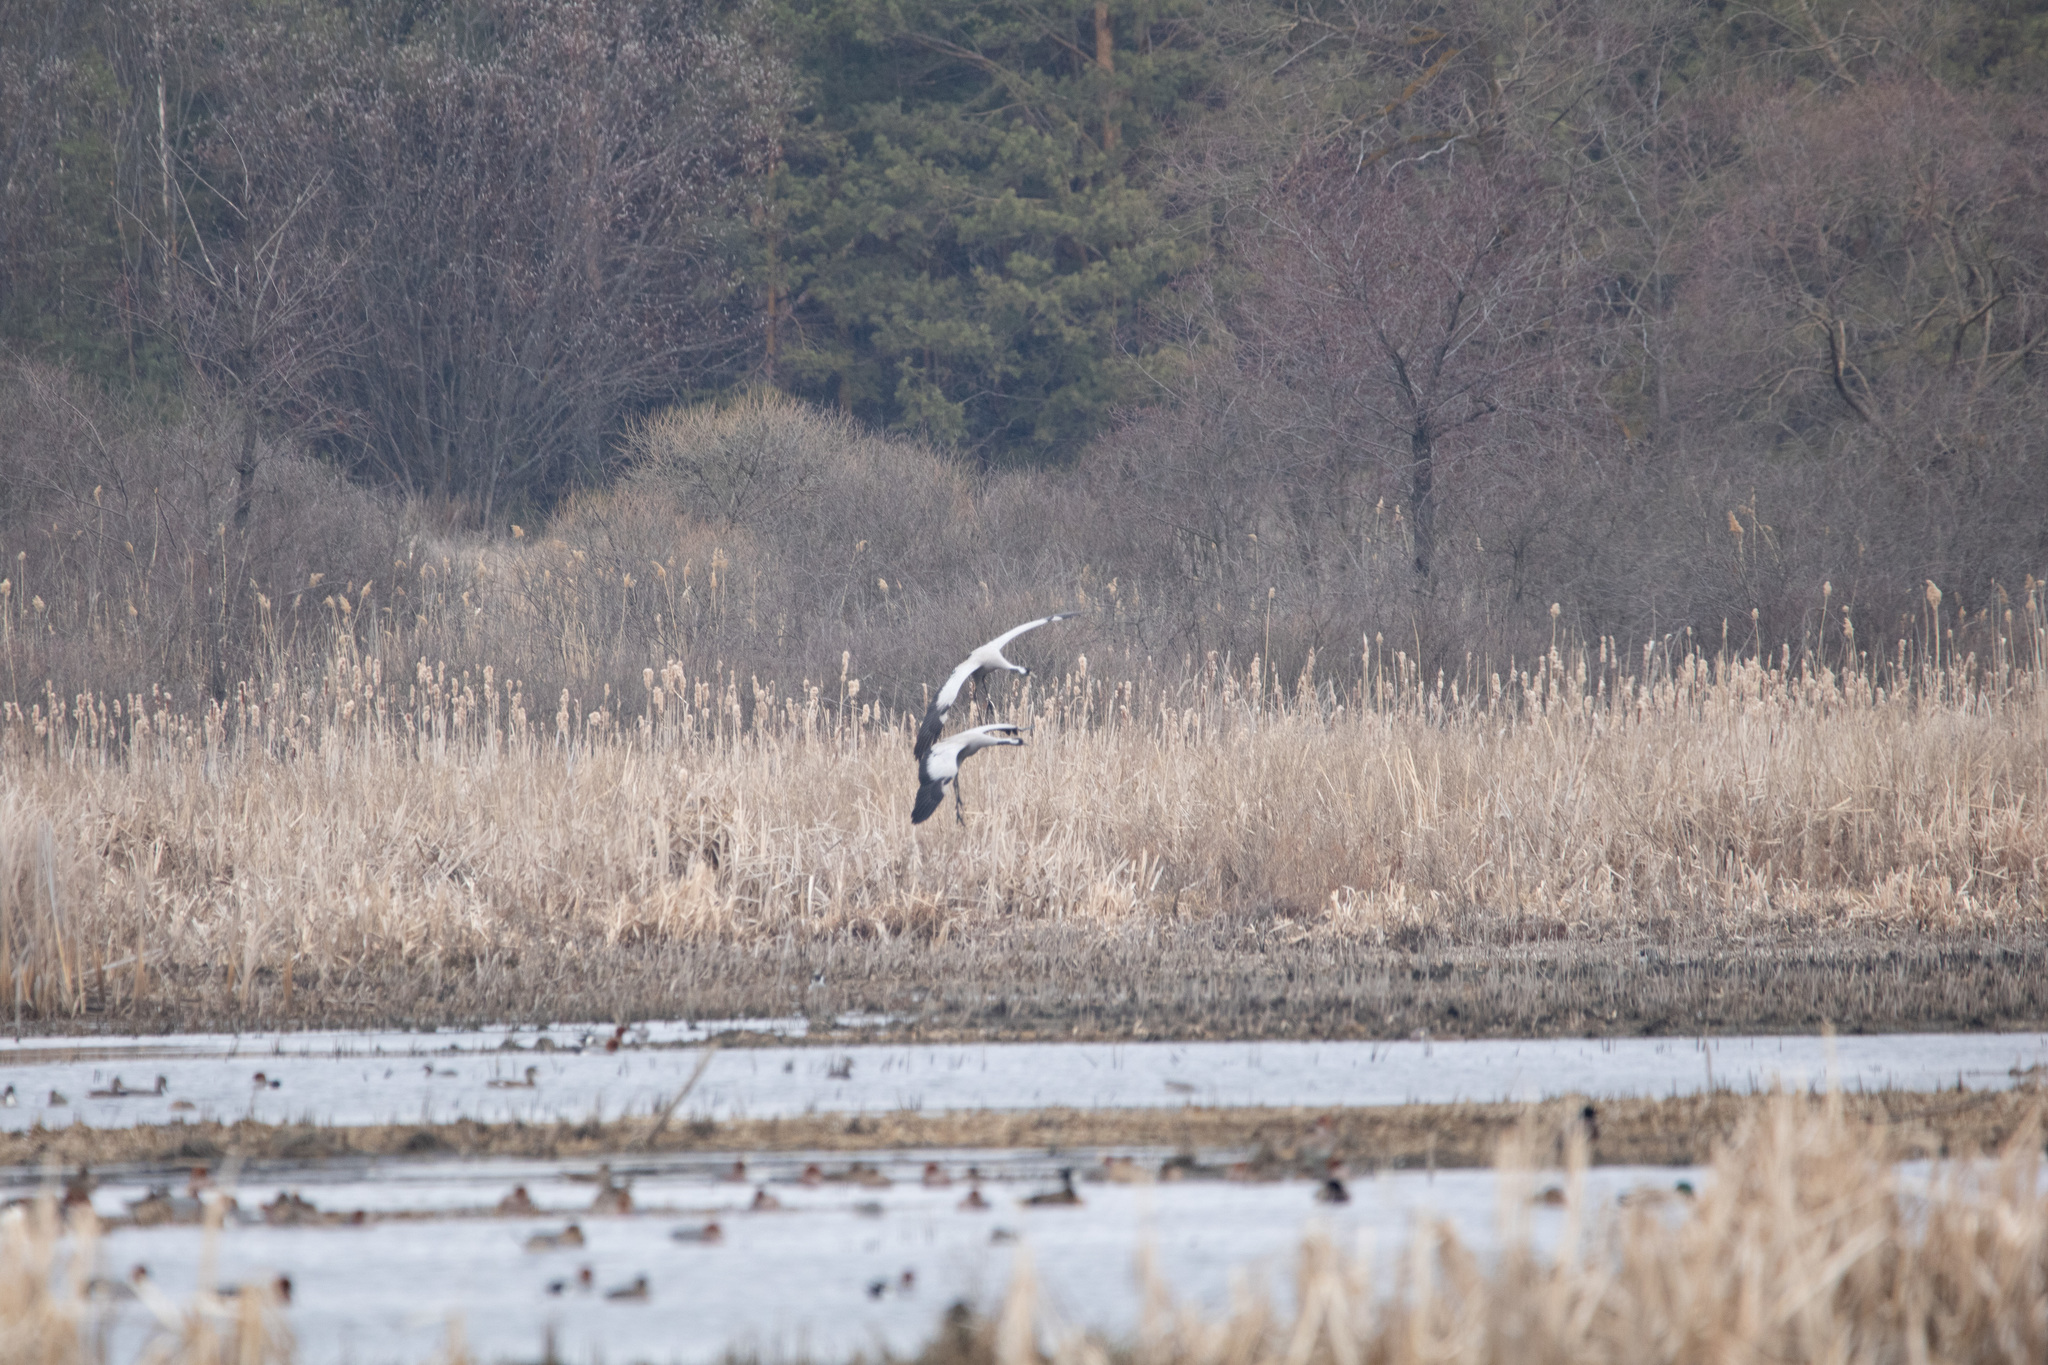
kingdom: Animalia
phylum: Chordata
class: Aves
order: Gruiformes
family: Gruidae
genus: Grus
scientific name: Grus grus
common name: Common crane
